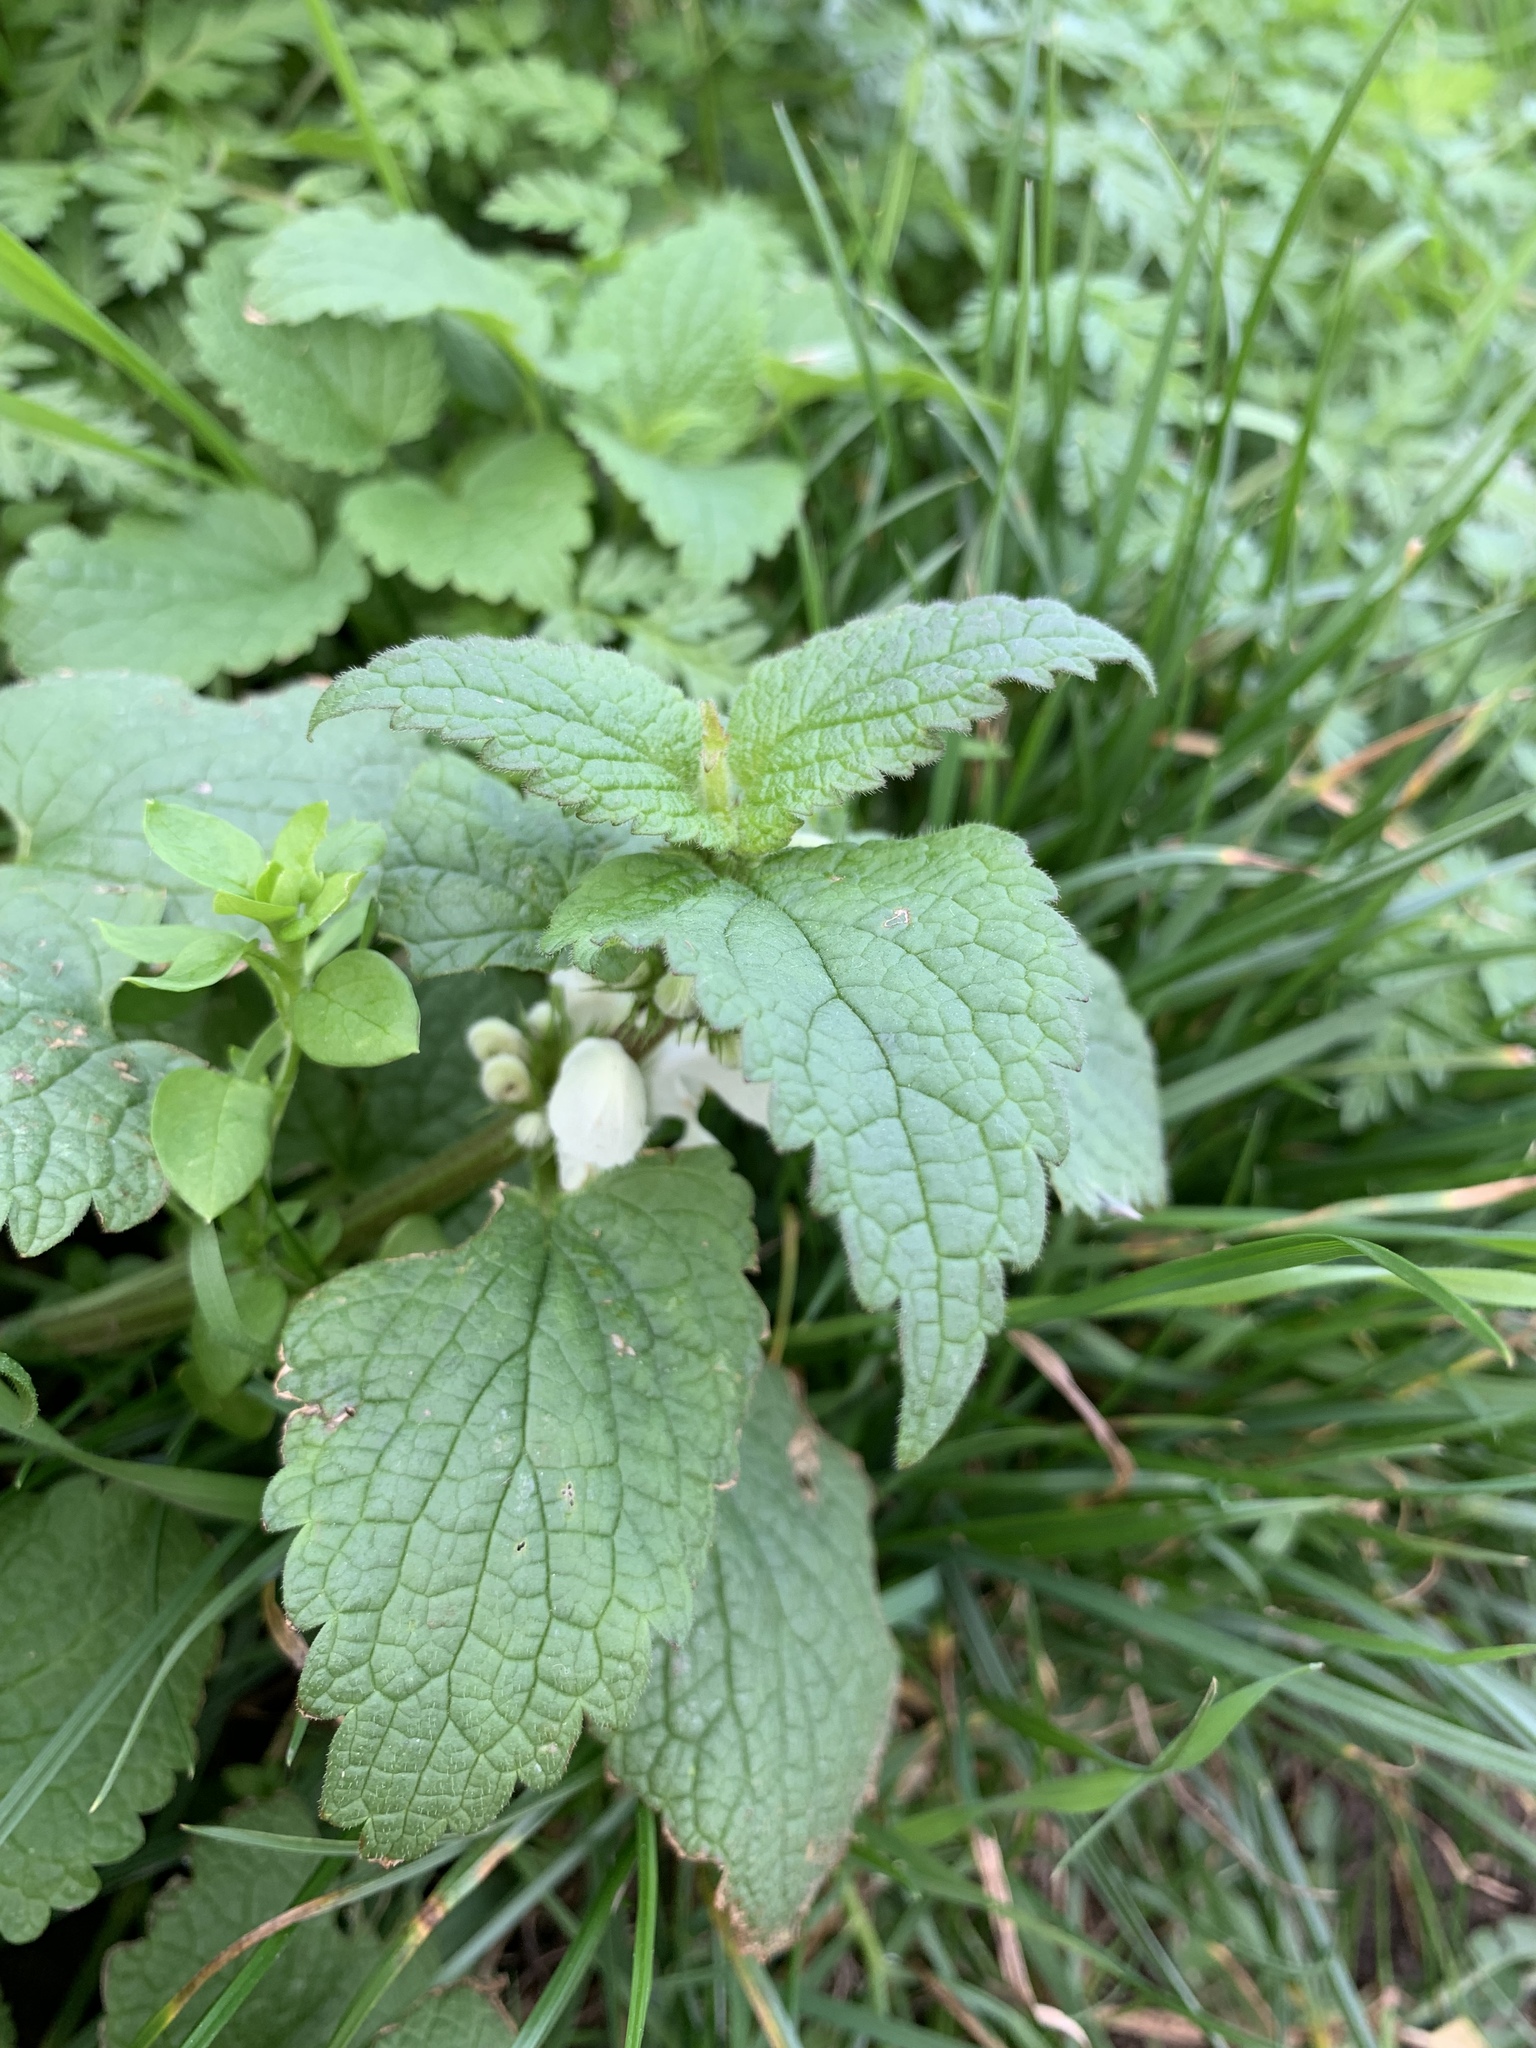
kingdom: Plantae
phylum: Tracheophyta
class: Magnoliopsida
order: Lamiales
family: Lamiaceae
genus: Lamium
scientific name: Lamium album
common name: White dead-nettle
